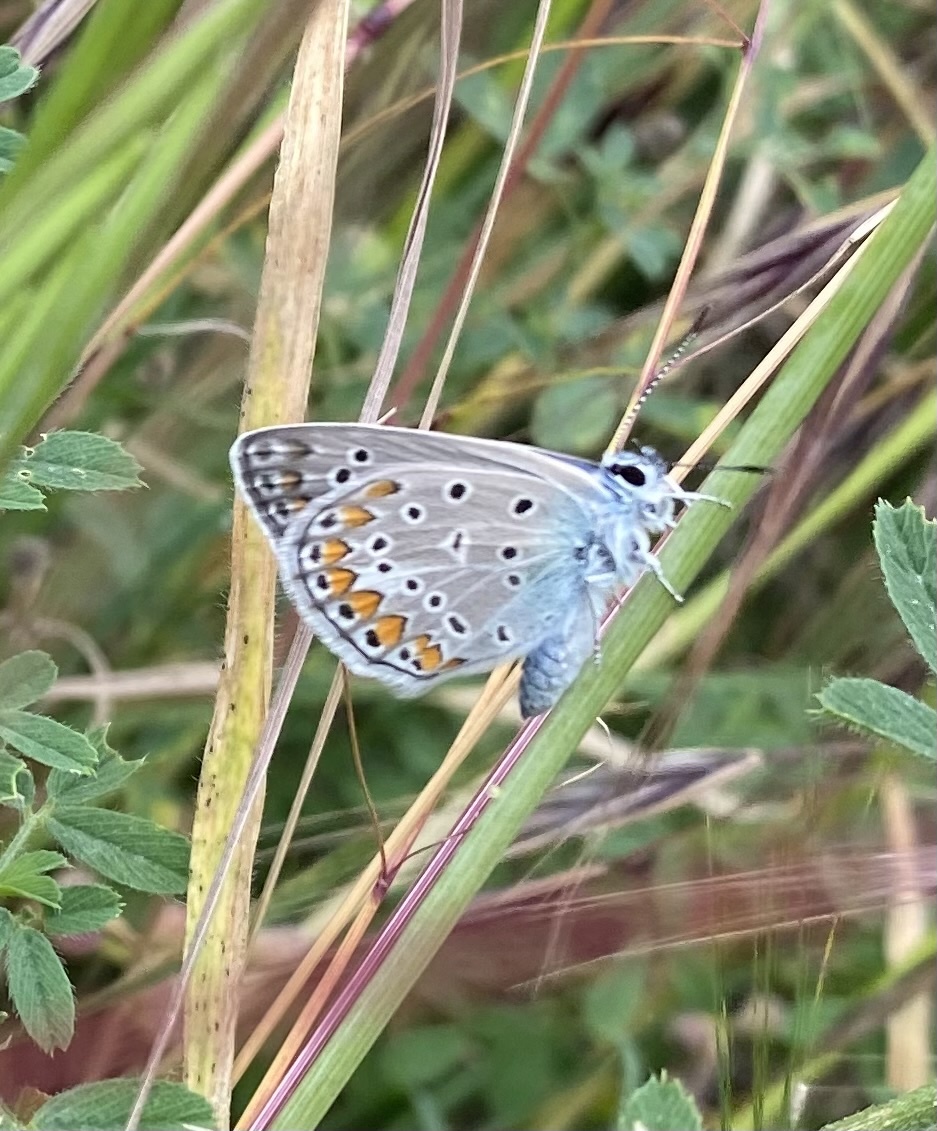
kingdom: Animalia
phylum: Arthropoda
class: Insecta
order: Lepidoptera
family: Lycaenidae
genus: Polyommatus
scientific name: Polyommatus icarus
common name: Common blue
